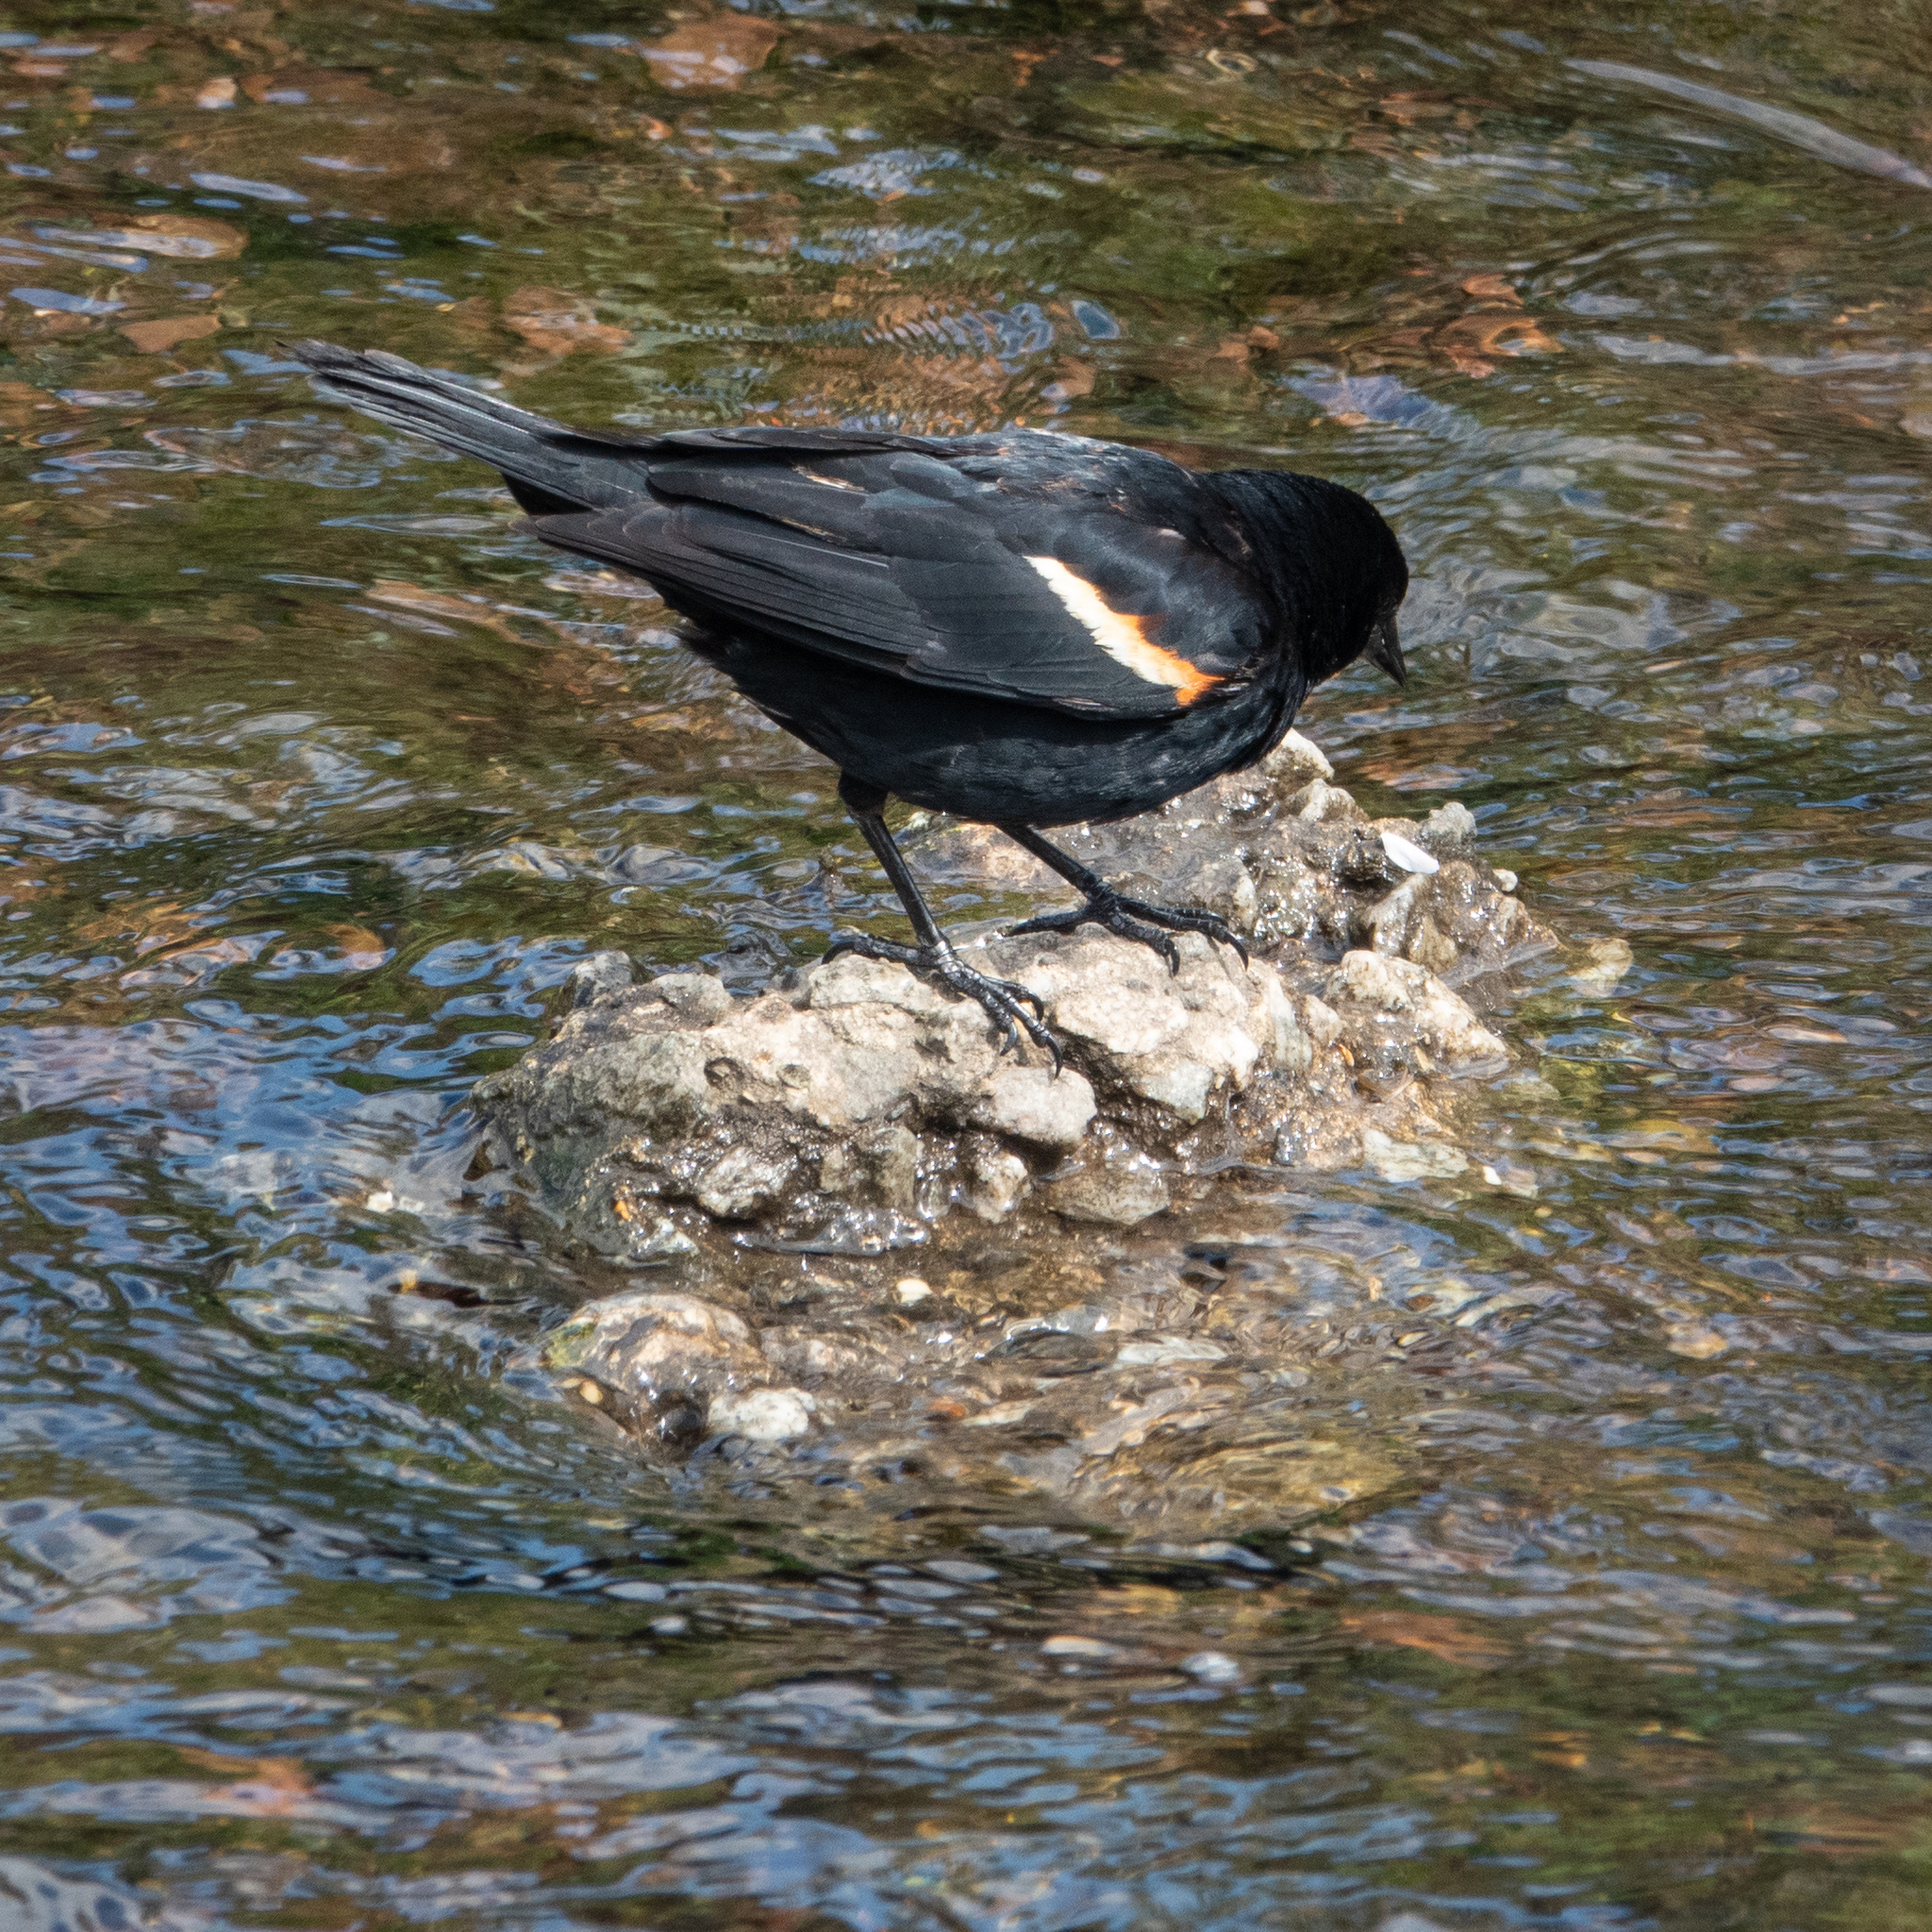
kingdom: Animalia
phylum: Chordata
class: Aves
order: Passeriformes
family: Icteridae
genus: Agelaius
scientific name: Agelaius phoeniceus
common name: Red-winged blackbird
